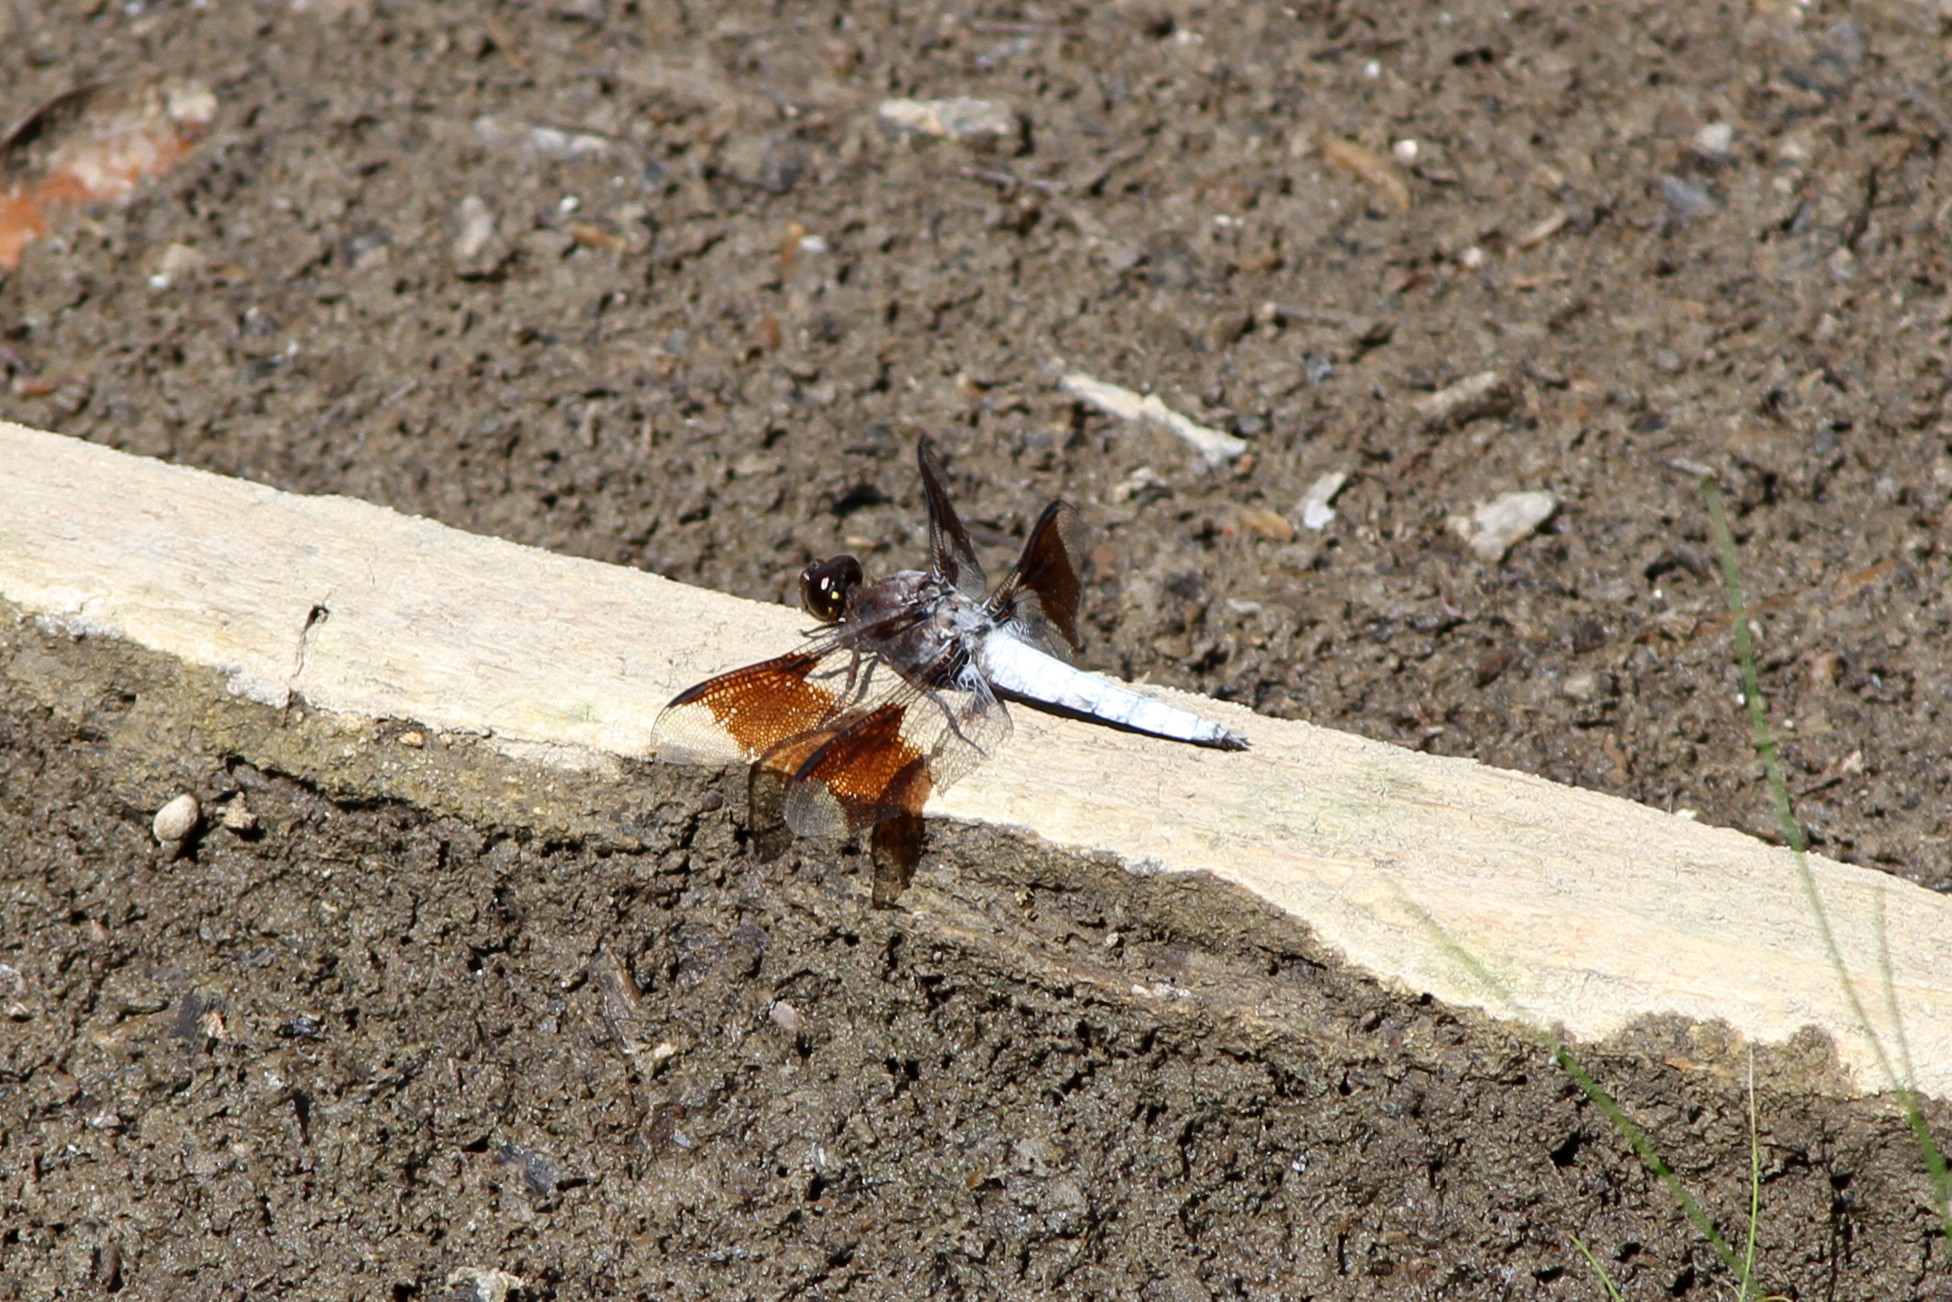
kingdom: Animalia
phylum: Arthropoda
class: Insecta
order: Odonata
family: Libellulidae
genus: Plathemis
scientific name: Plathemis lydia
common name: Common whitetail
